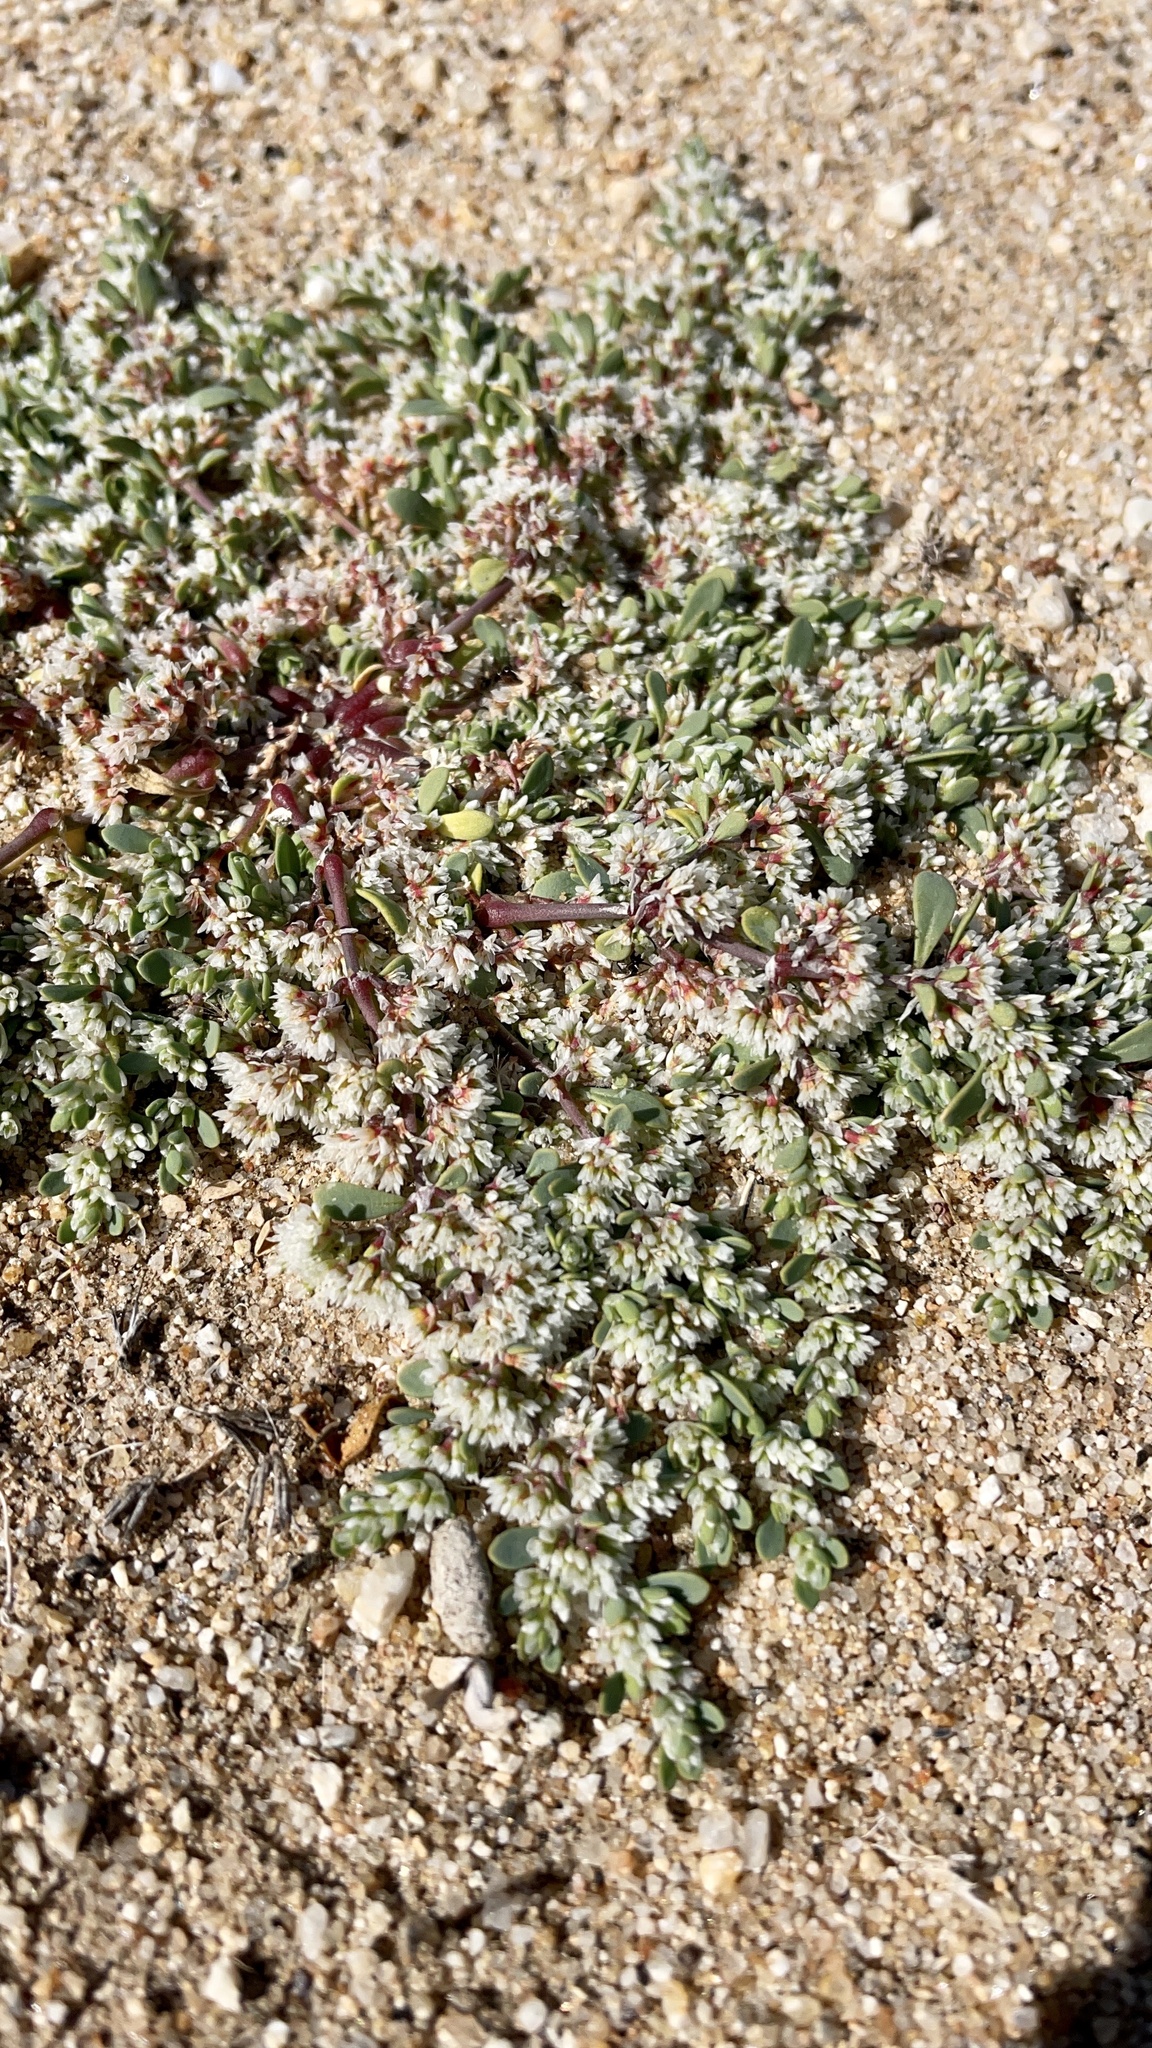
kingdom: Plantae
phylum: Tracheophyta
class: Magnoliopsida
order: Caryophyllales
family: Caryophyllaceae
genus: Achyronychia
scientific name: Achyronychia cooperi
